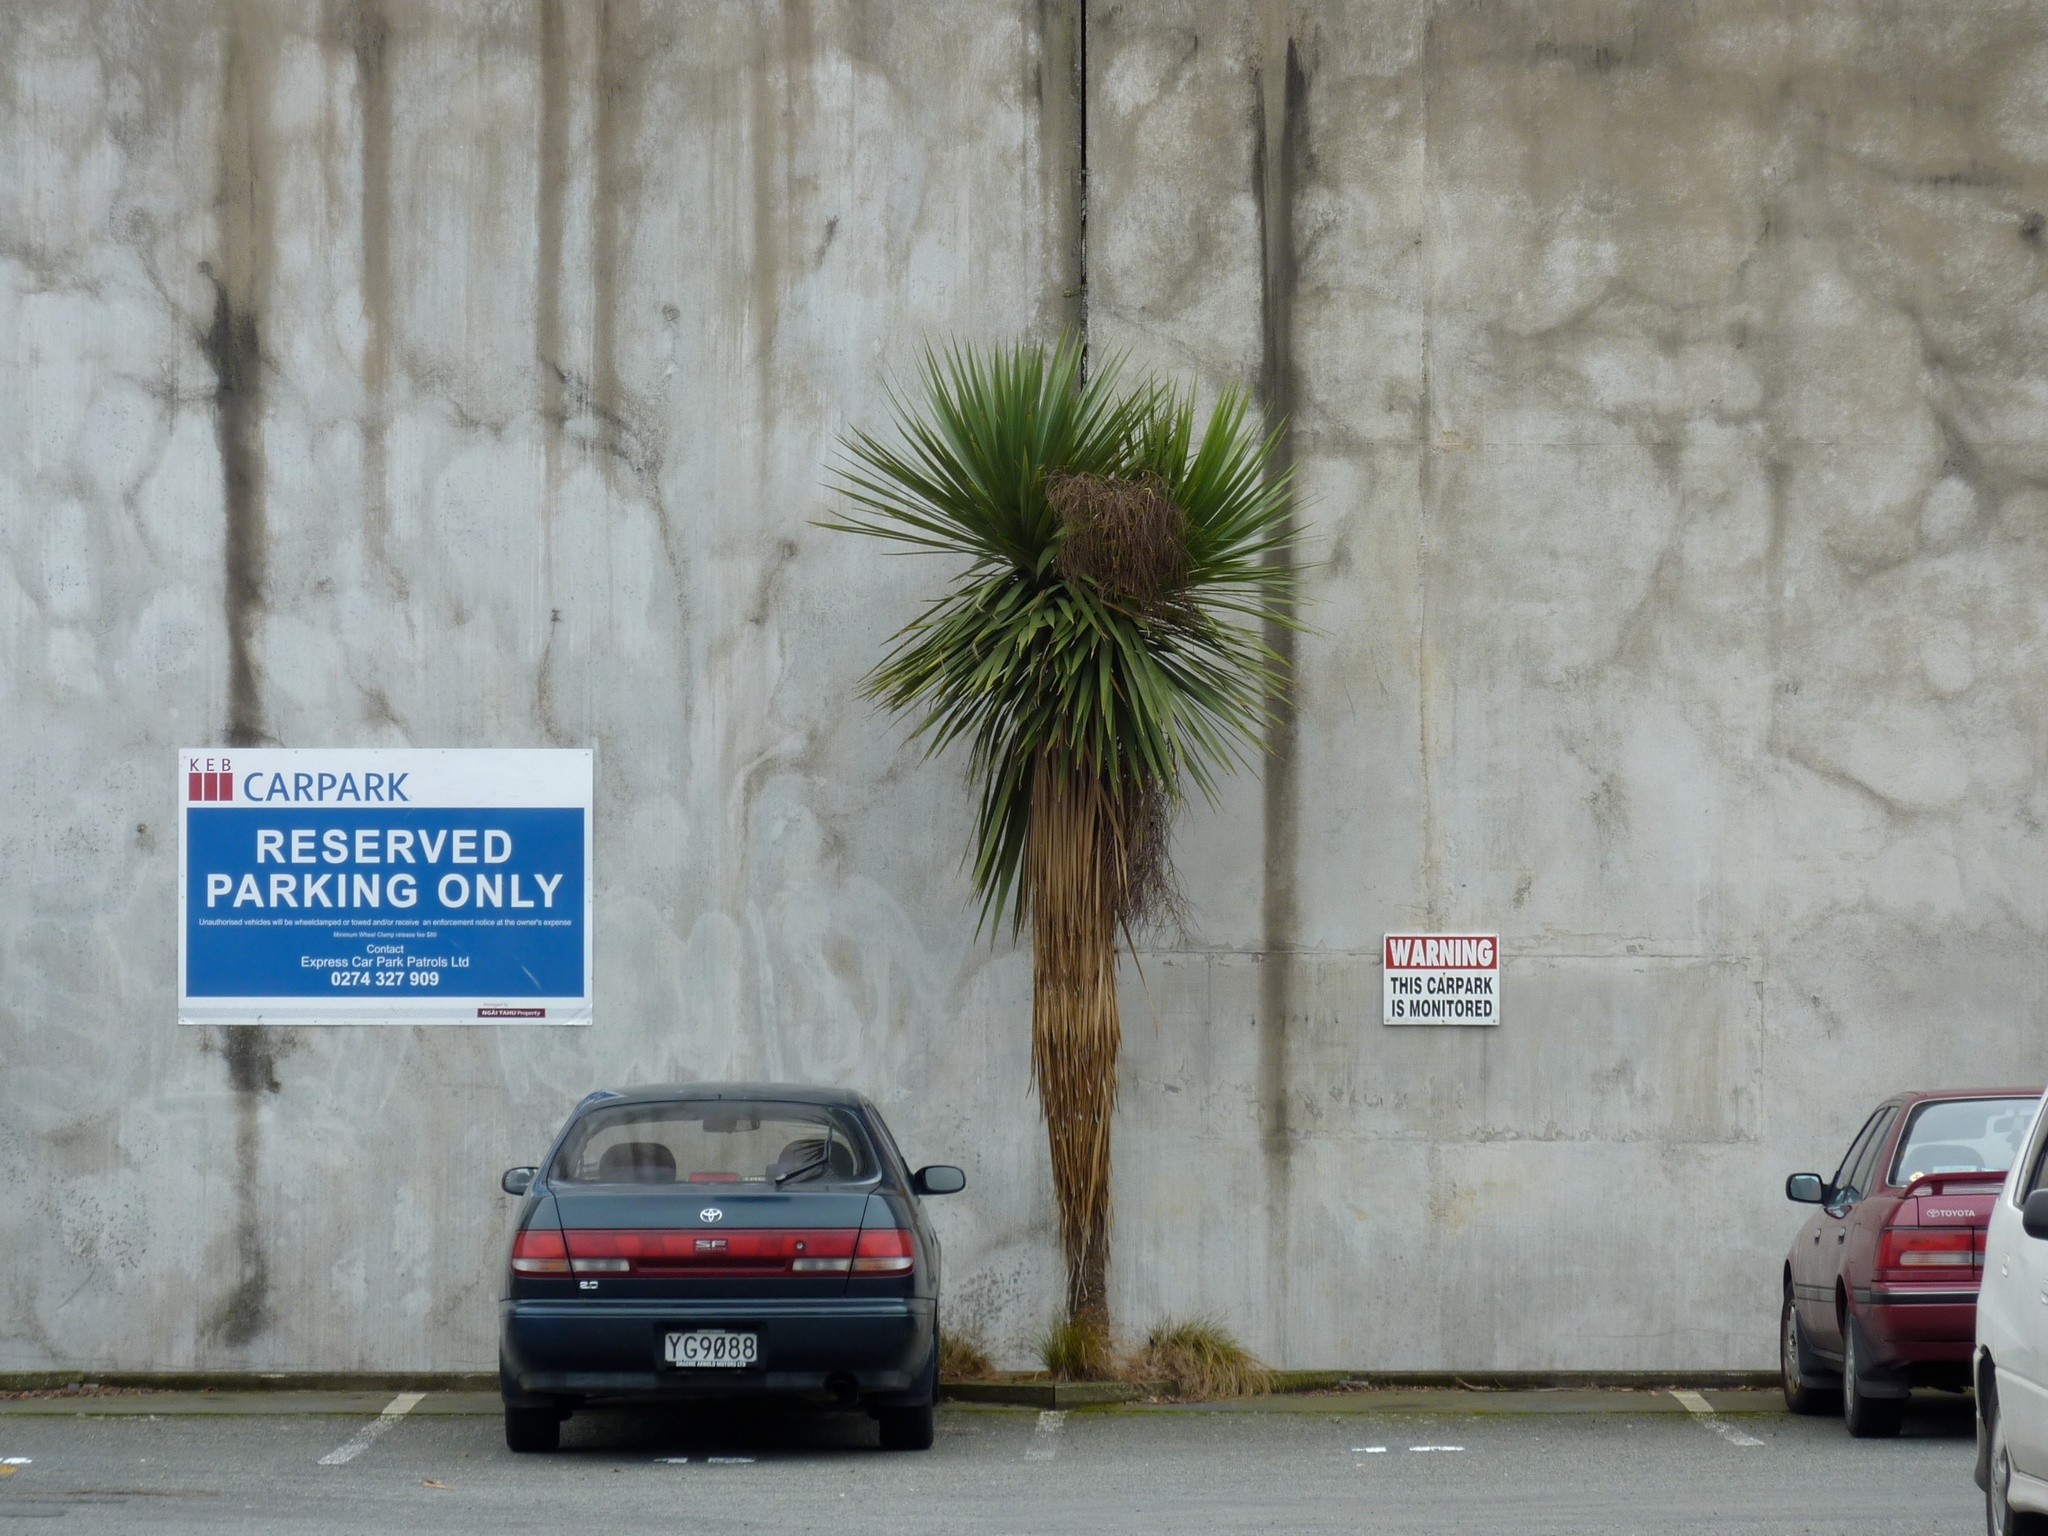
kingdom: Plantae
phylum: Tracheophyta
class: Liliopsida
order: Asparagales
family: Asparagaceae
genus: Cordyline
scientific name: Cordyline australis
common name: Cabbage-palm
